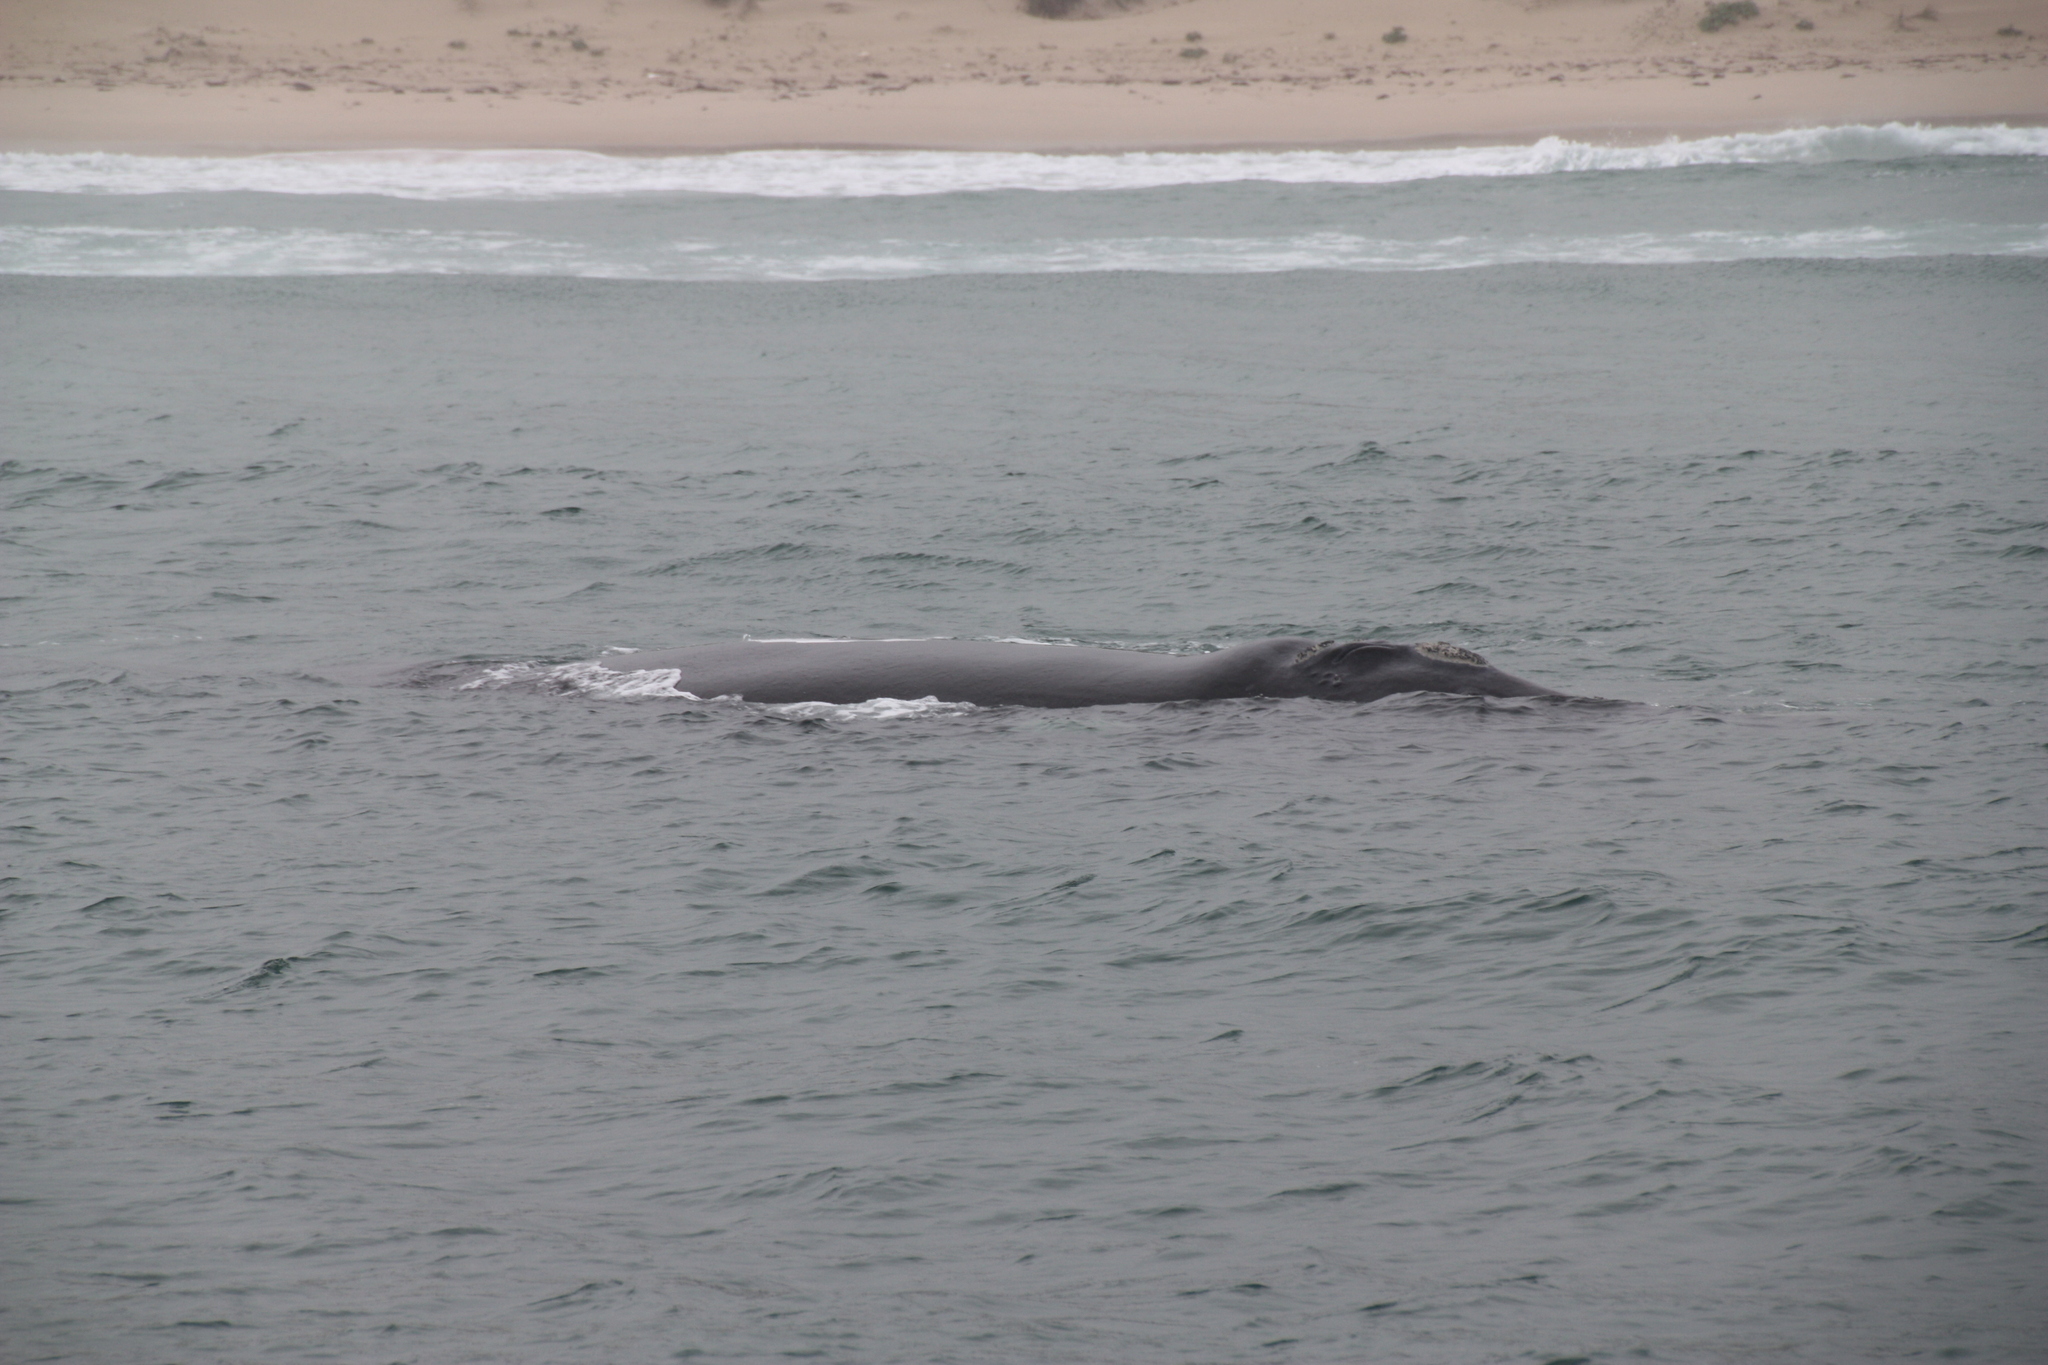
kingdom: Animalia
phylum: Chordata
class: Mammalia
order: Cetacea
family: Balaenidae
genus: Eubalaena
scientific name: Eubalaena australis
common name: Southern right whale
